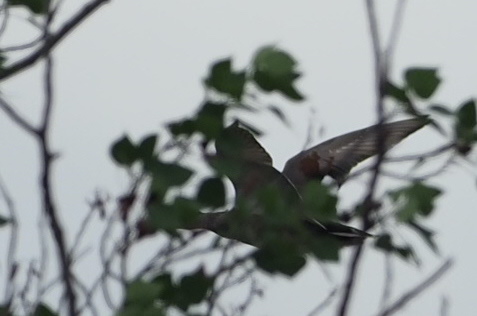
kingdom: Animalia
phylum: Chordata
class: Aves
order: Anseriformes
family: Anatidae
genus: Mareca
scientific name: Mareca strepera
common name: Gadwall
